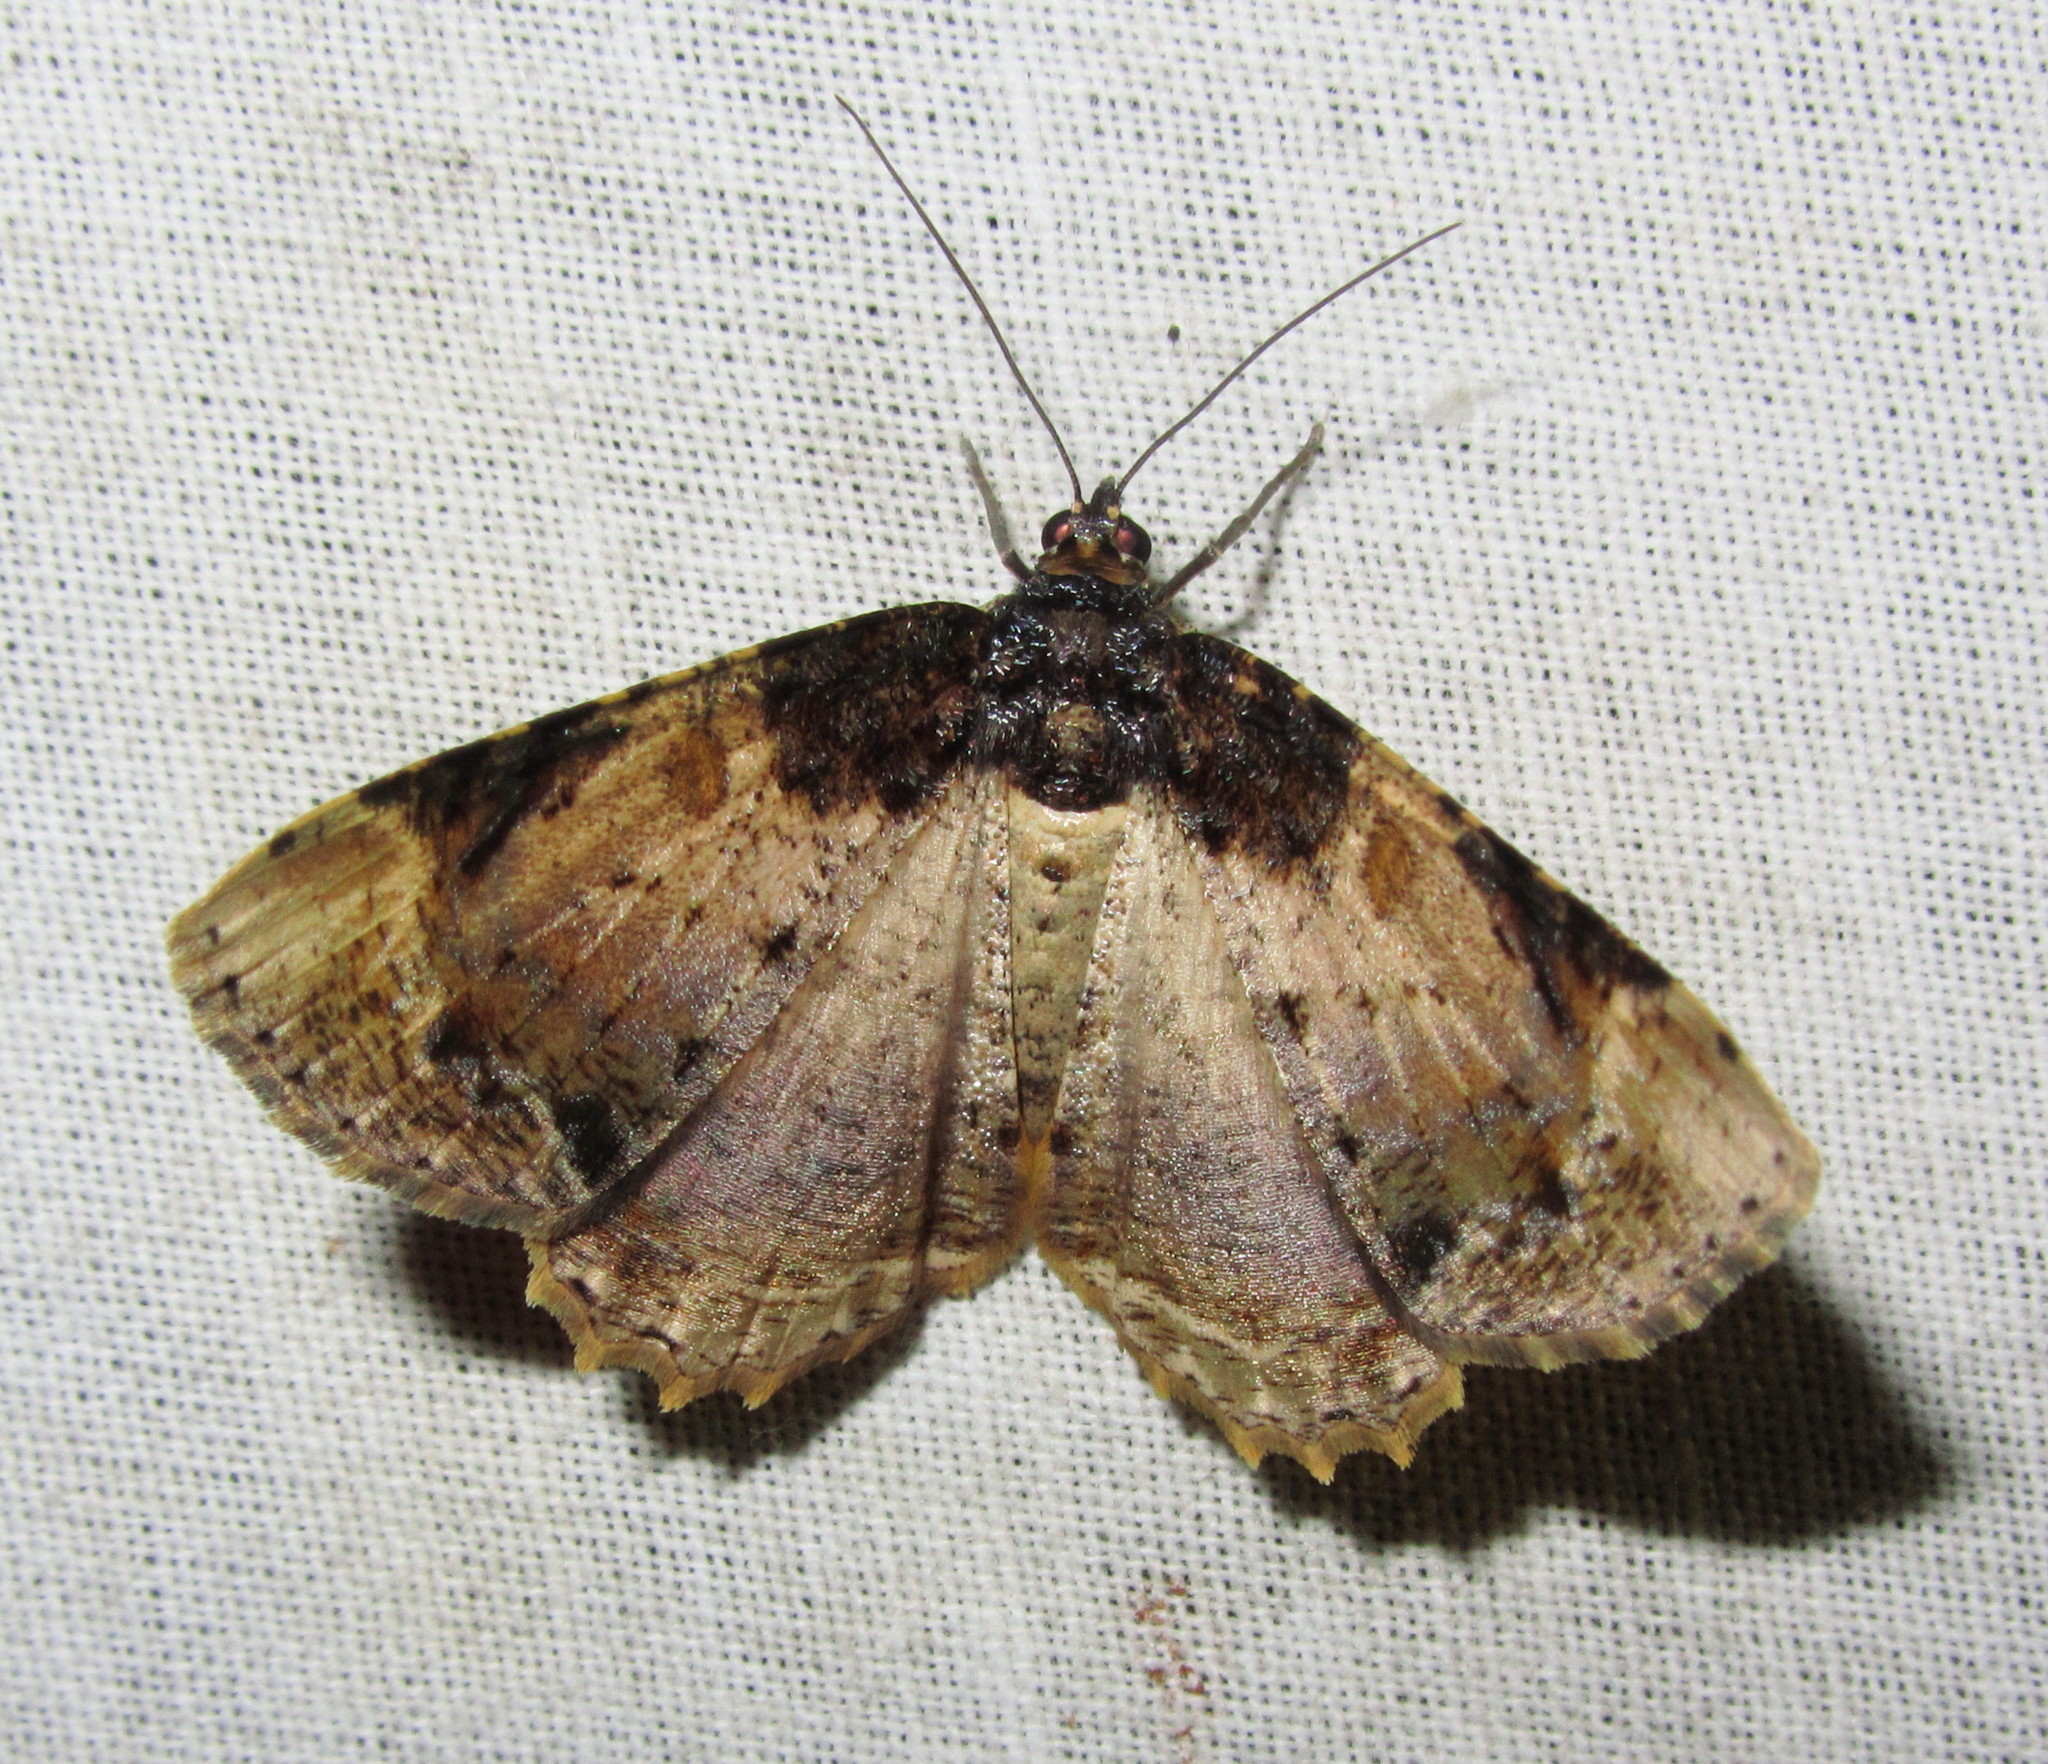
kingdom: Animalia
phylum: Arthropoda
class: Insecta
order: Lepidoptera
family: Geometridae
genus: Cassephyra
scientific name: Cassephyra lamprosticta
